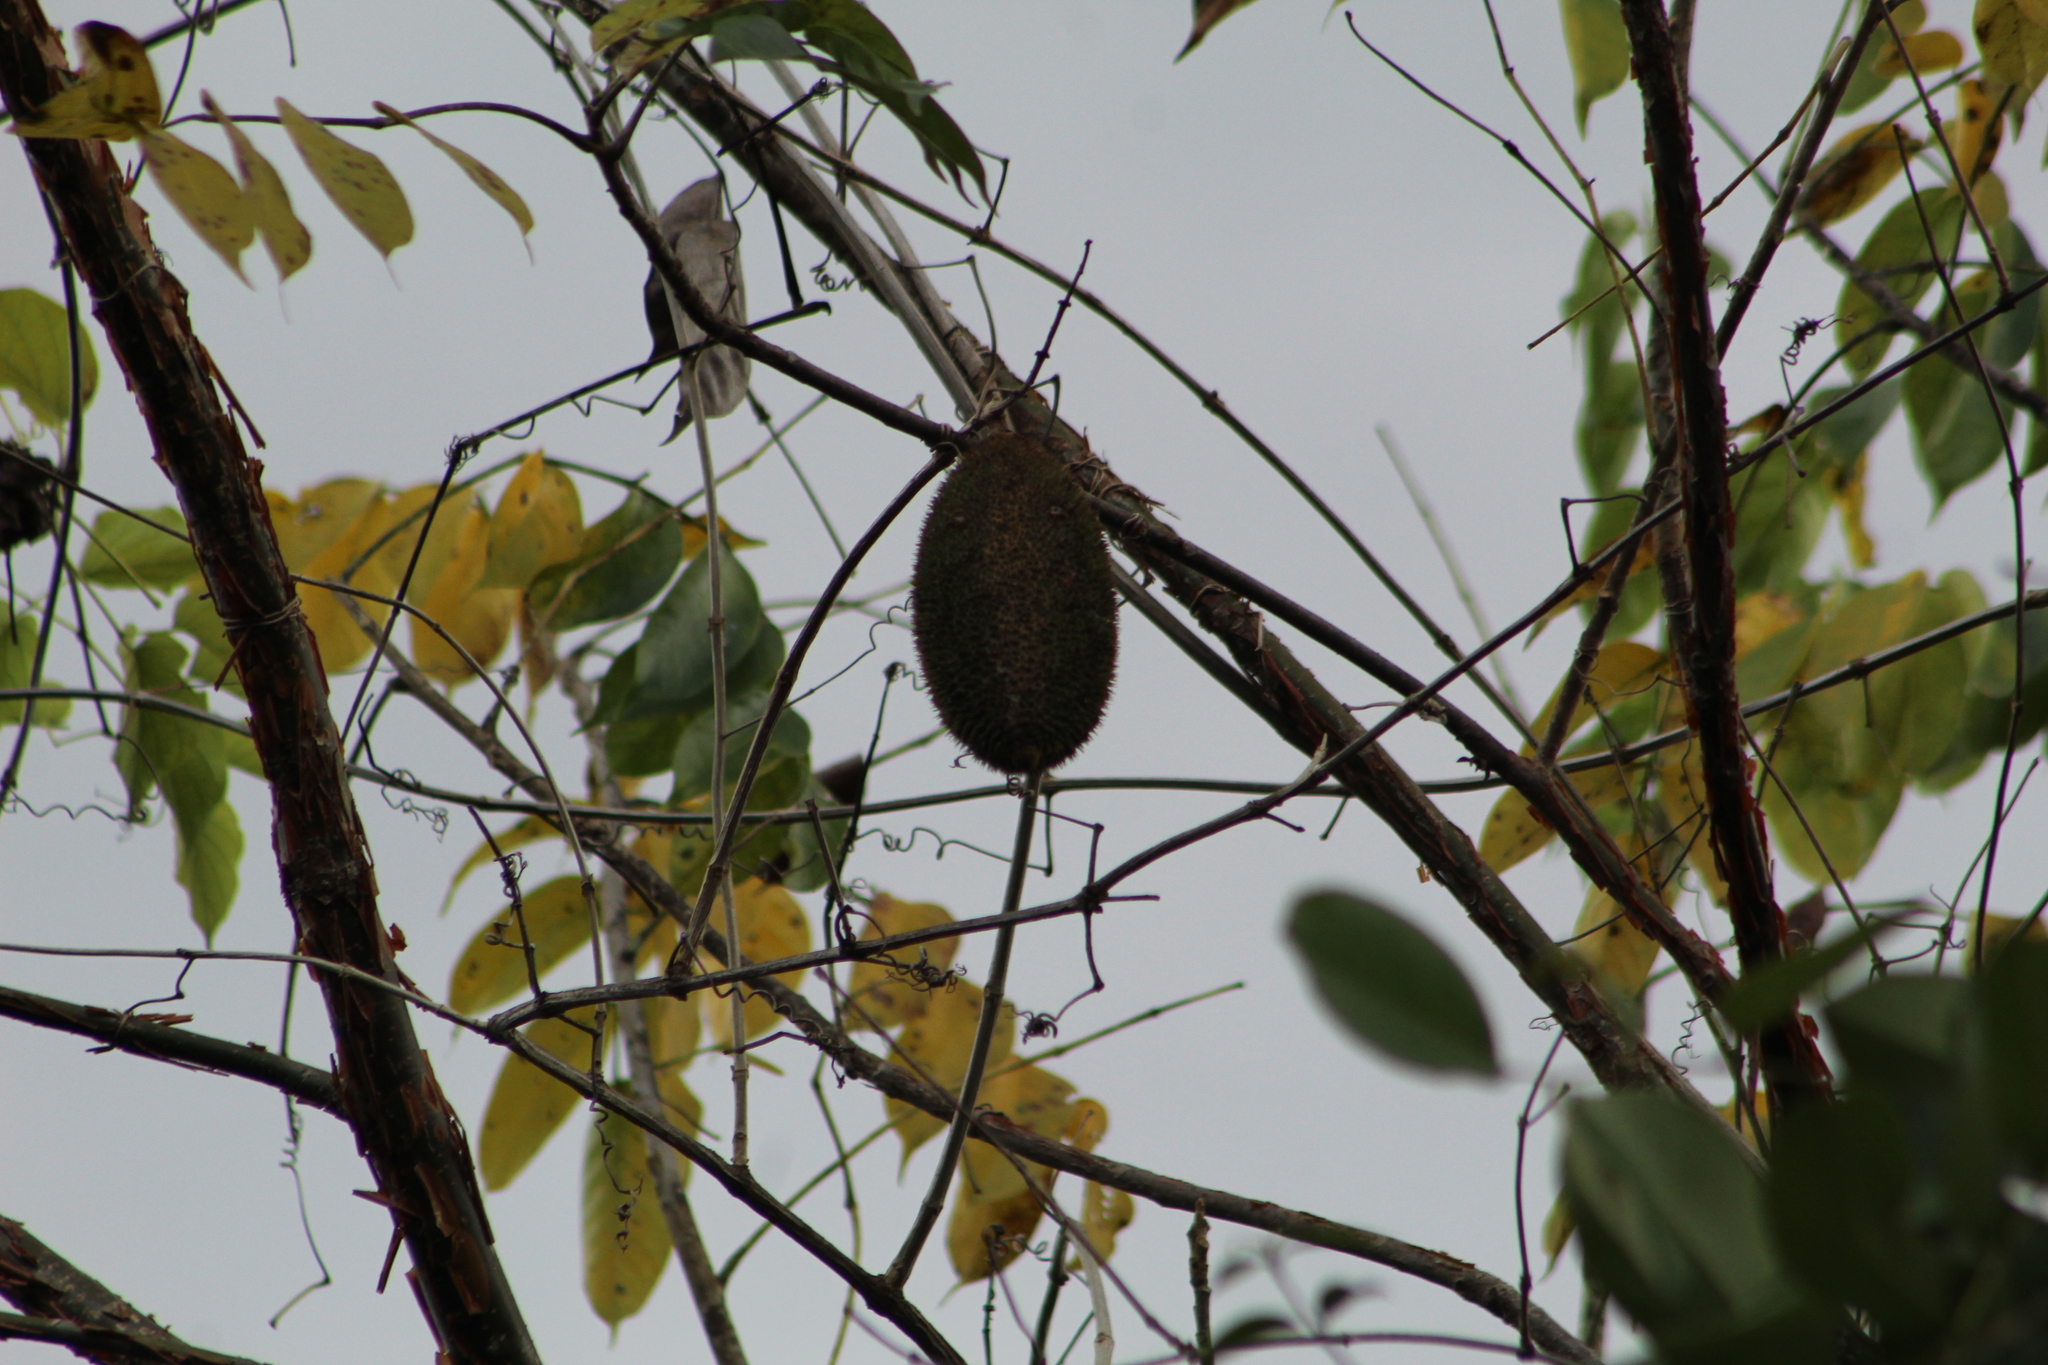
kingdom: Plantae
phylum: Tracheophyta
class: Magnoliopsida
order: Lamiales
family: Bignoniaceae
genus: Amphilophium
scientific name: Amphilophium crucigerum
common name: Monkey comb
